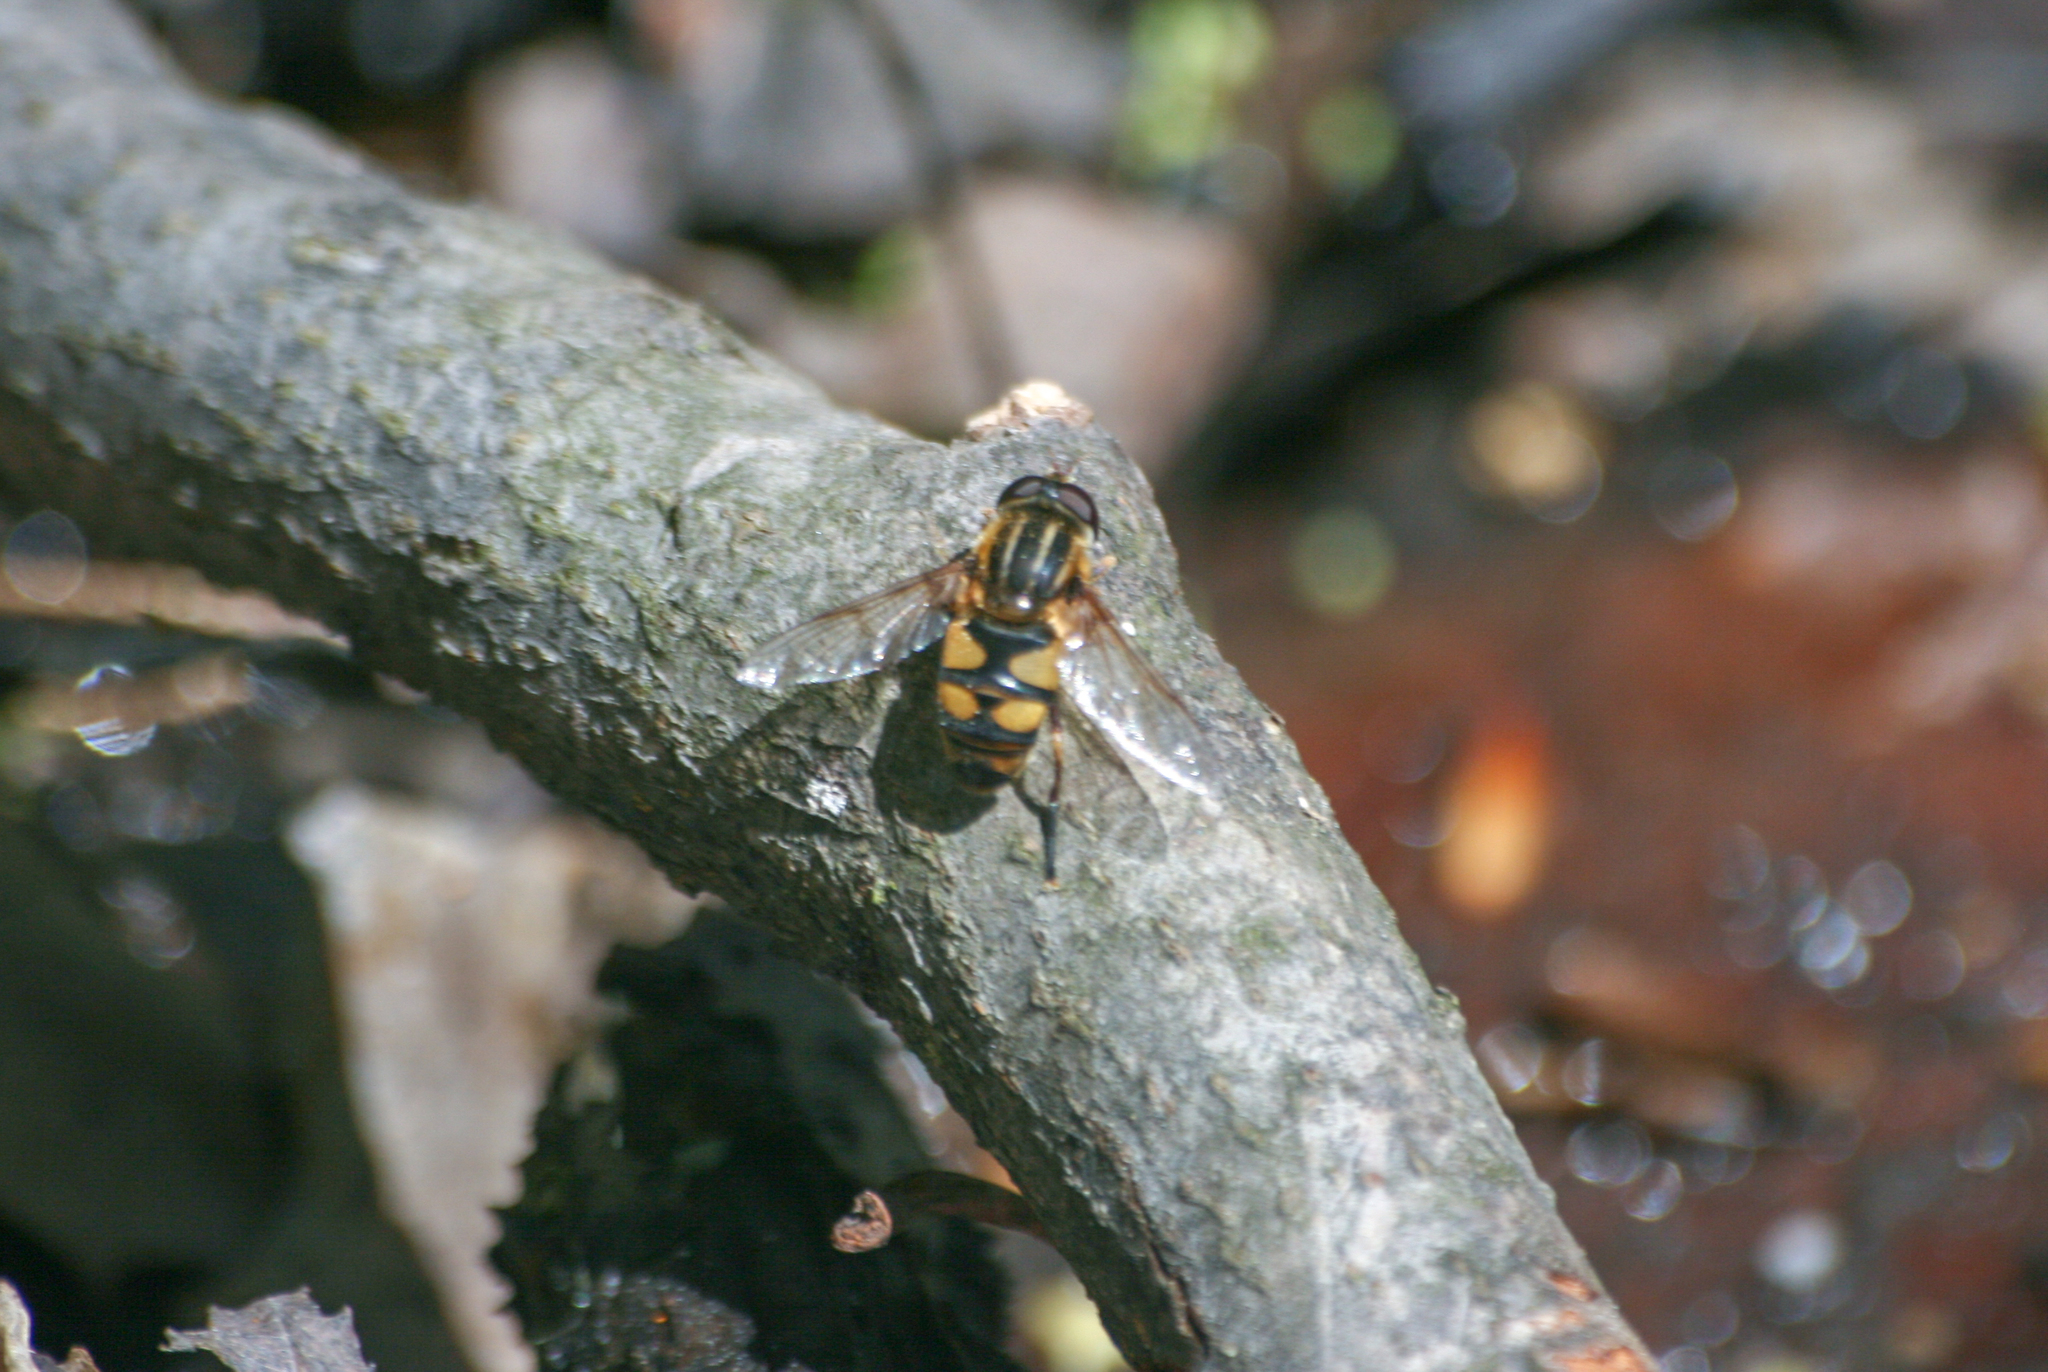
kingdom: Animalia
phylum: Arthropoda
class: Insecta
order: Diptera
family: Syrphidae
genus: Helophilus
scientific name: Helophilus fasciatus
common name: Narrow-headed marsh fly
